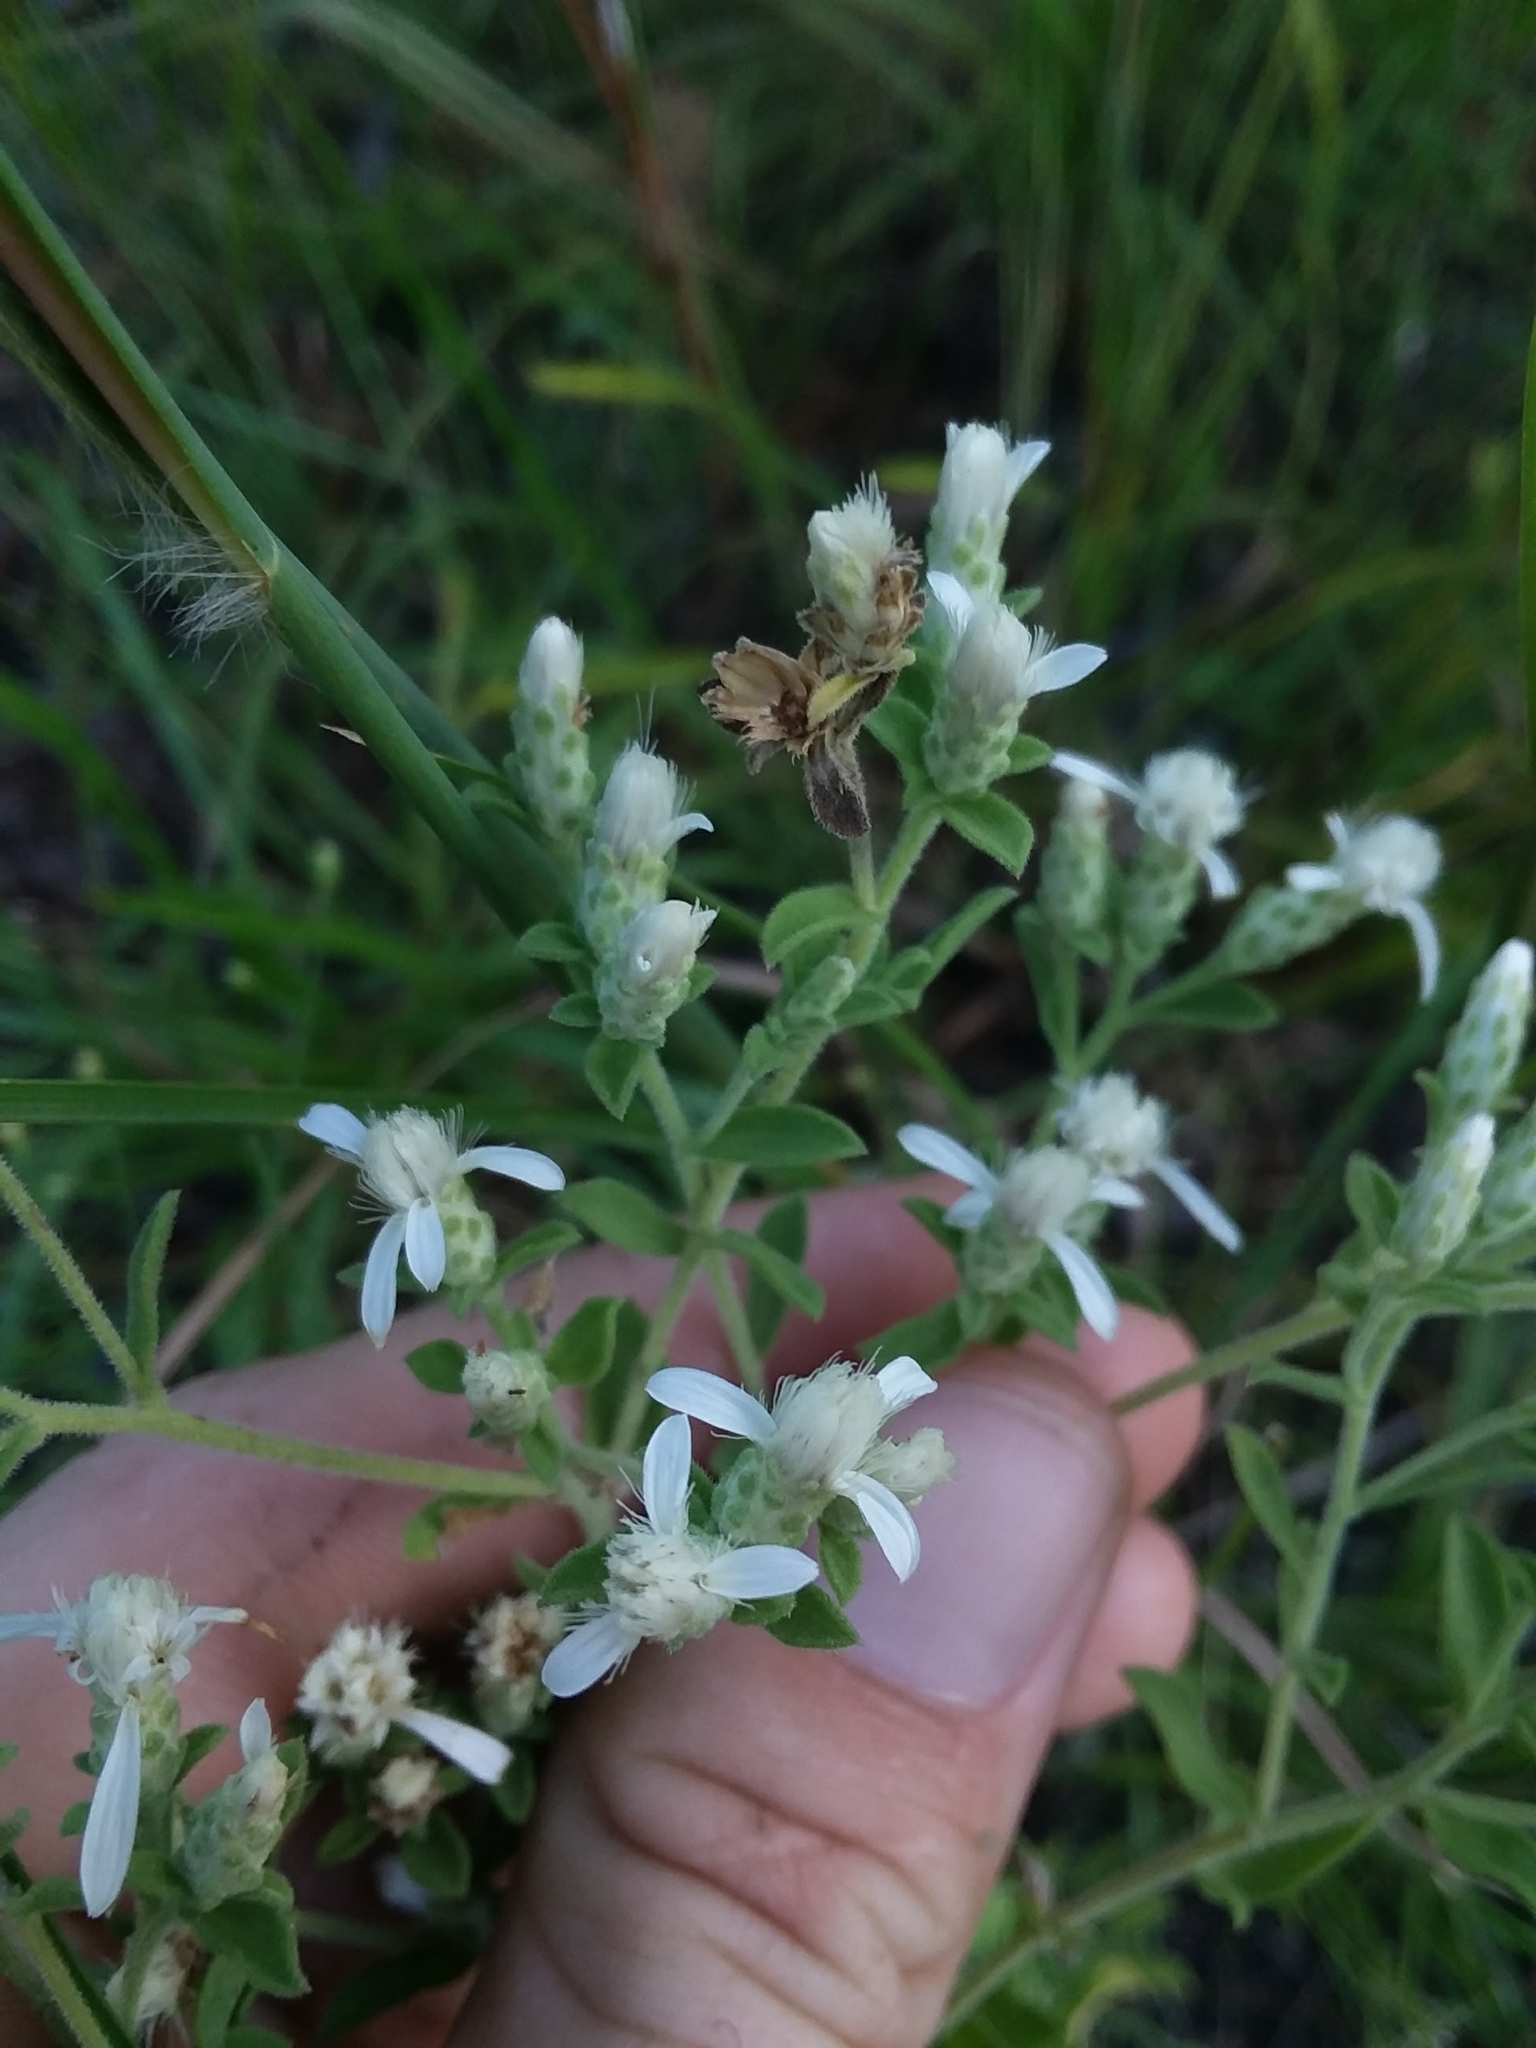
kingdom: Plantae
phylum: Tracheophyta
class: Magnoliopsida
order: Asterales
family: Asteraceae
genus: Sericocarpus
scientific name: Sericocarpus tortifolius
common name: Dixie aster
